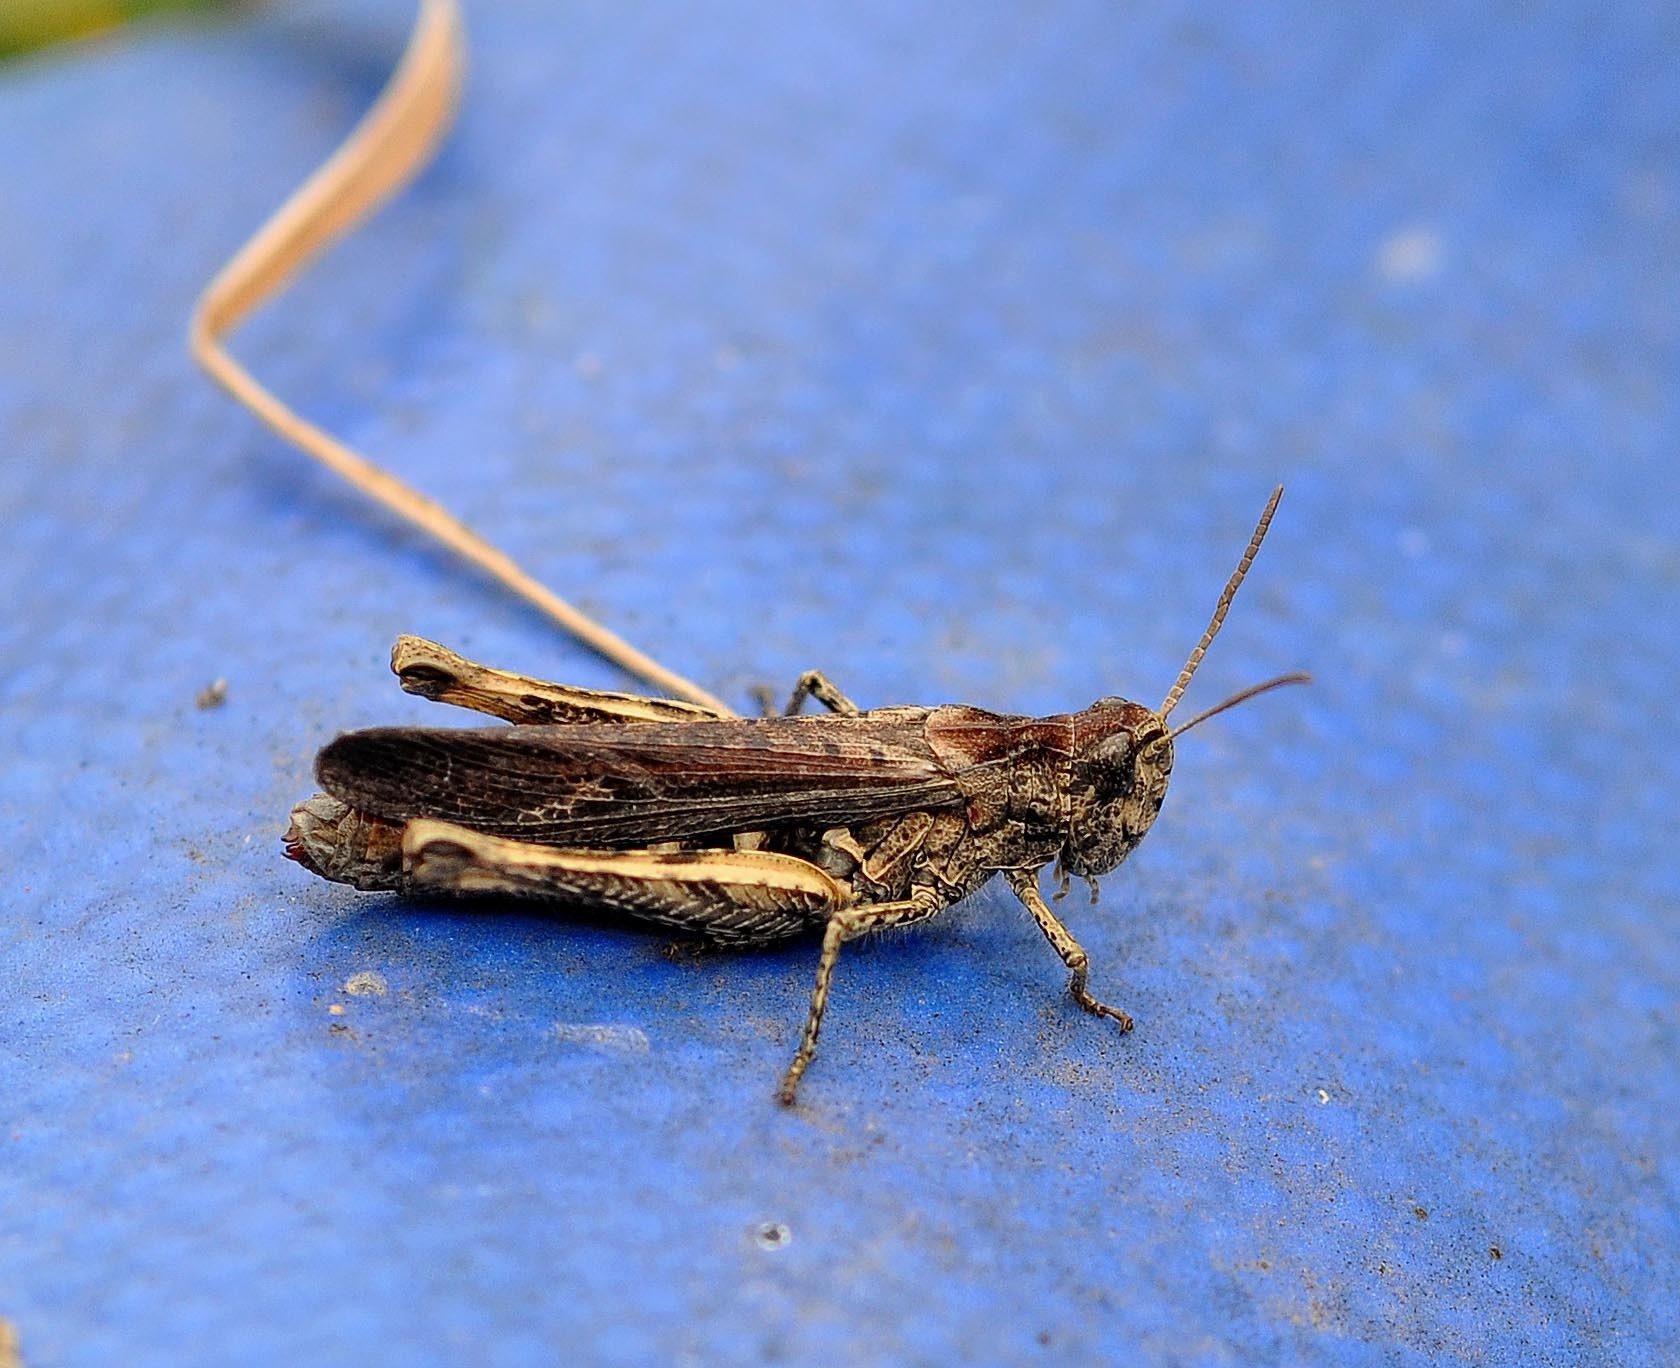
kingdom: Animalia
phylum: Arthropoda
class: Insecta
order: Orthoptera
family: Acrididae
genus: Chorthippus
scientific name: Chorthippus brunneus
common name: Field grasshopper
